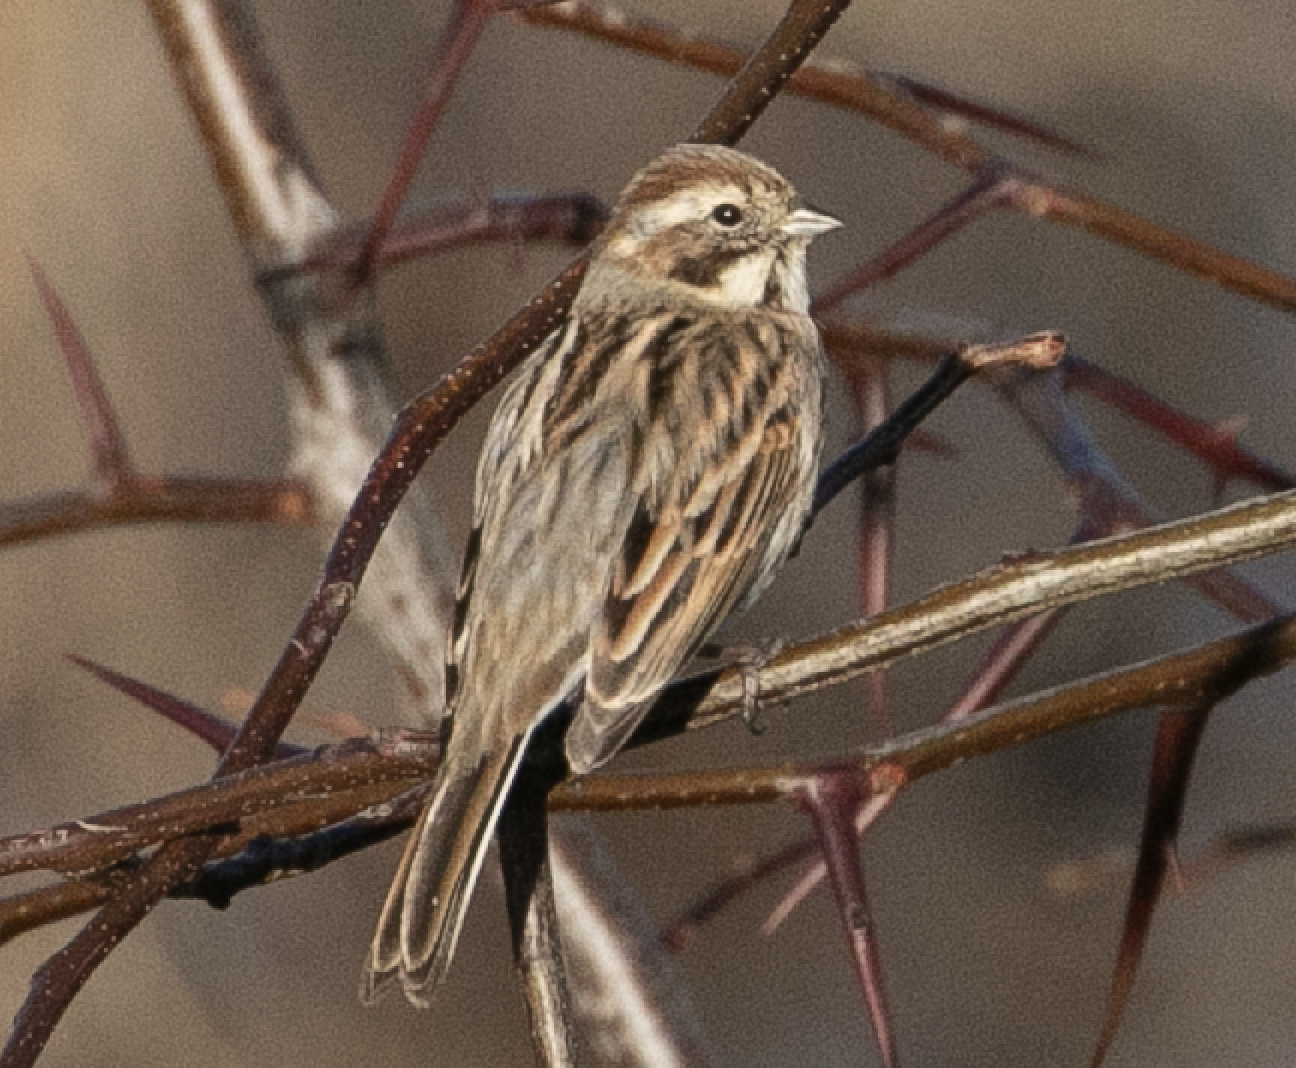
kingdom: Animalia
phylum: Chordata
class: Aves
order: Passeriformes
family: Emberizidae
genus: Emberiza
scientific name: Emberiza schoeniclus
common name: Reed bunting
